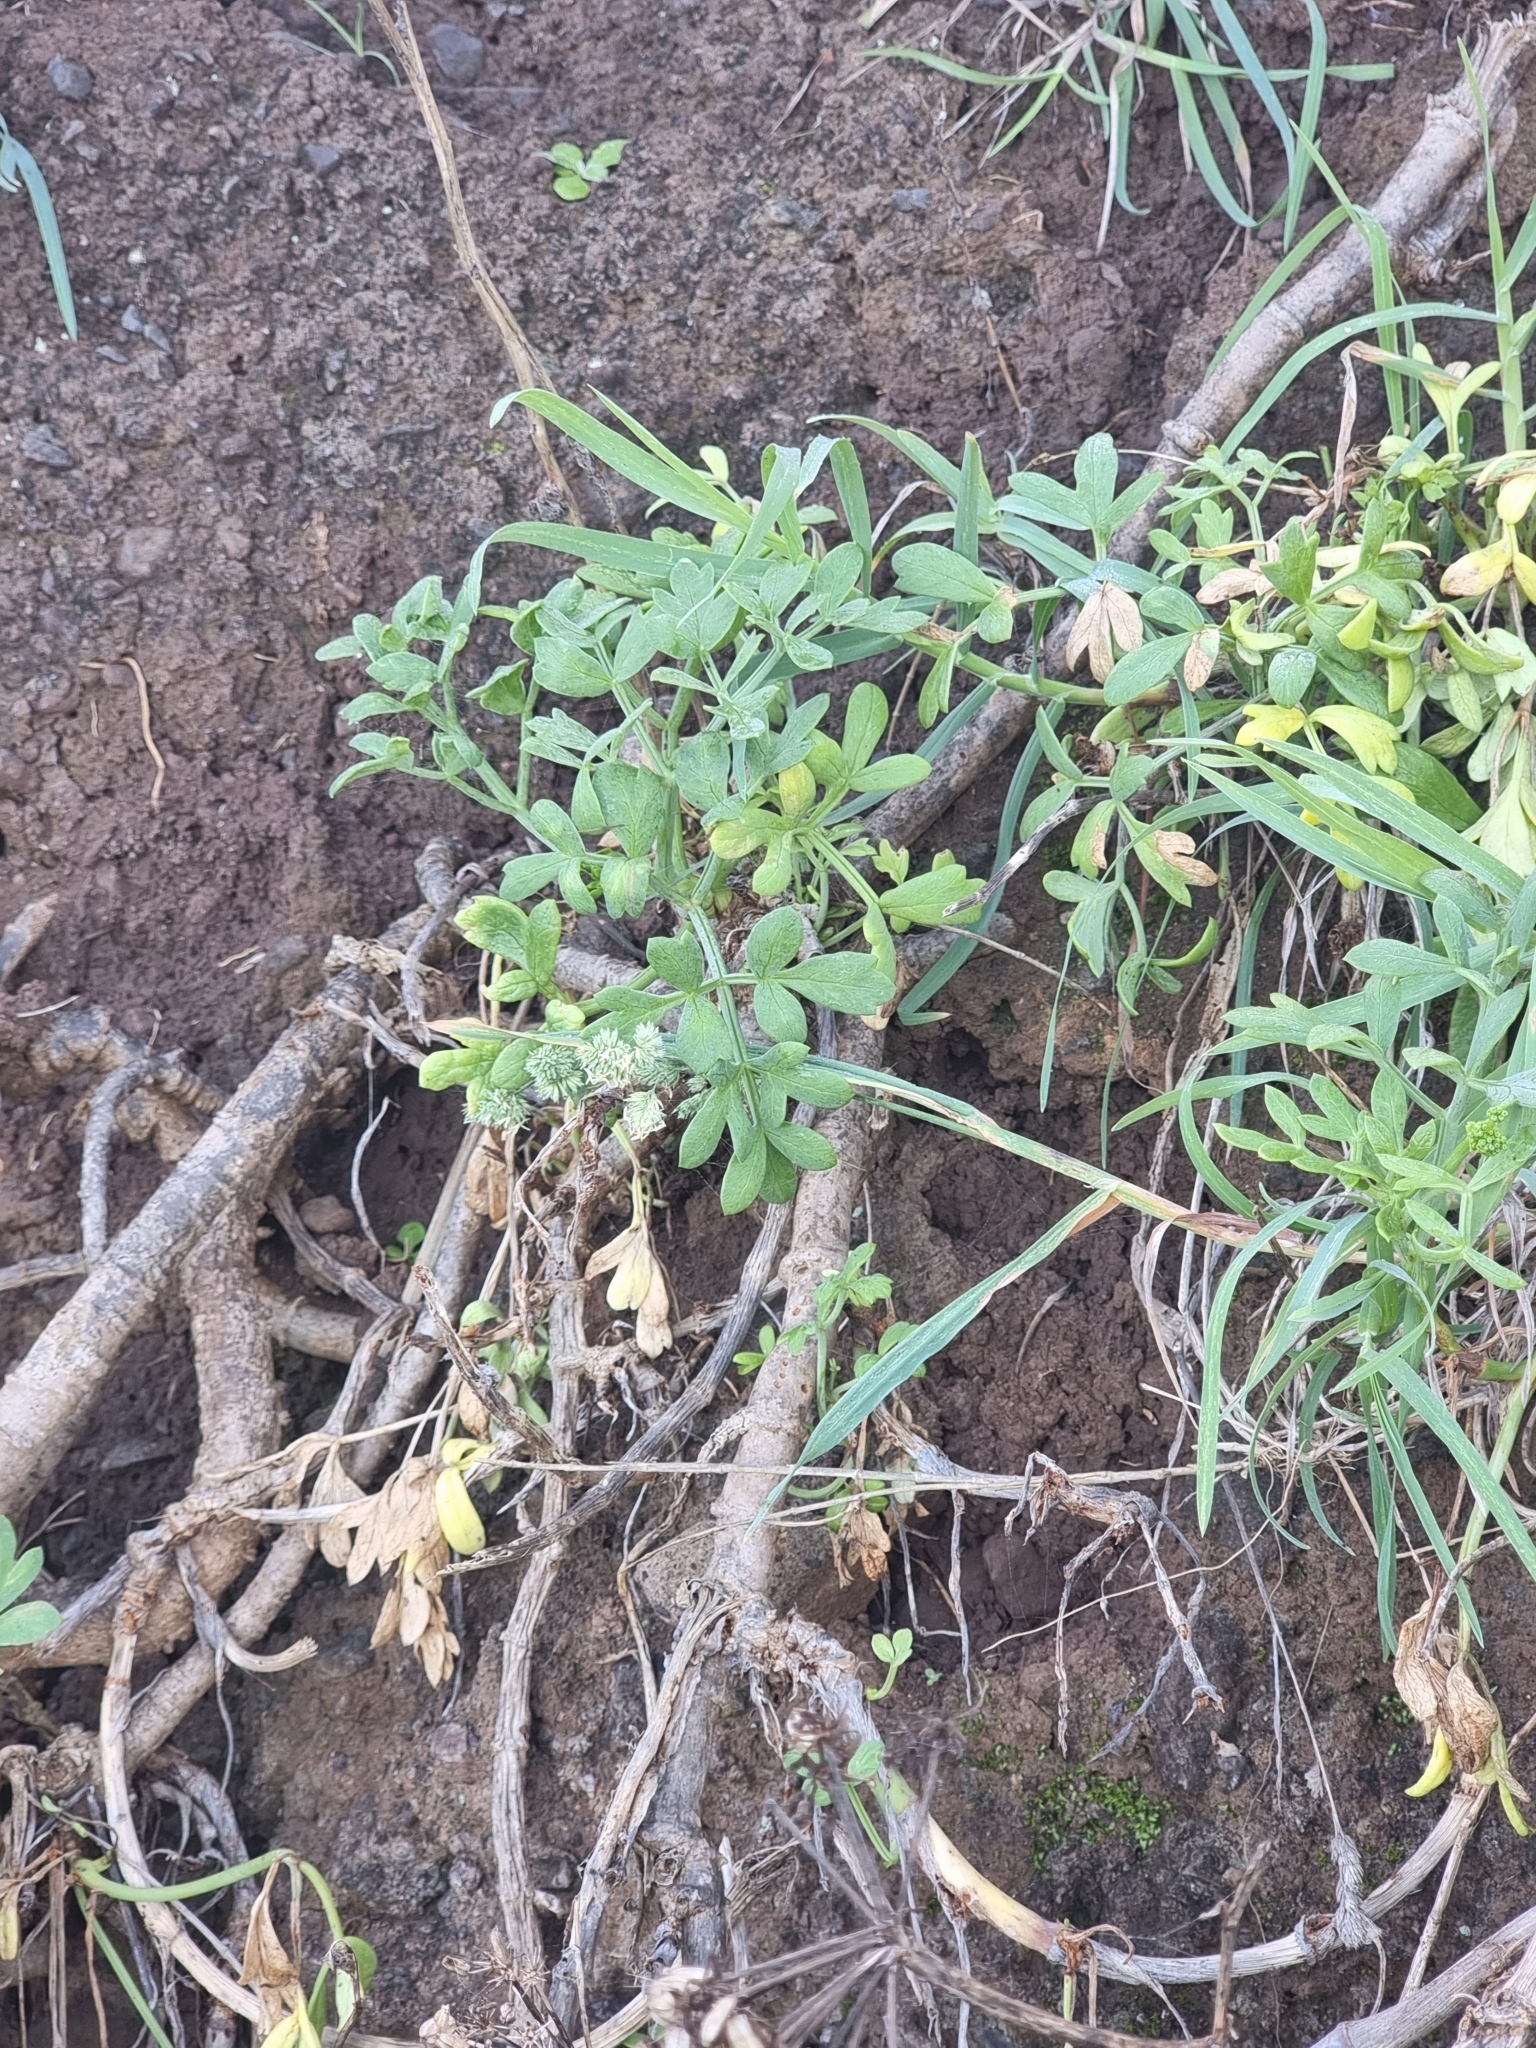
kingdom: Plantae
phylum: Tracheophyta
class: Magnoliopsida
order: Apiales
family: Apiaceae
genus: Crithmum
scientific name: Crithmum maritimum
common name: Rock samphire
